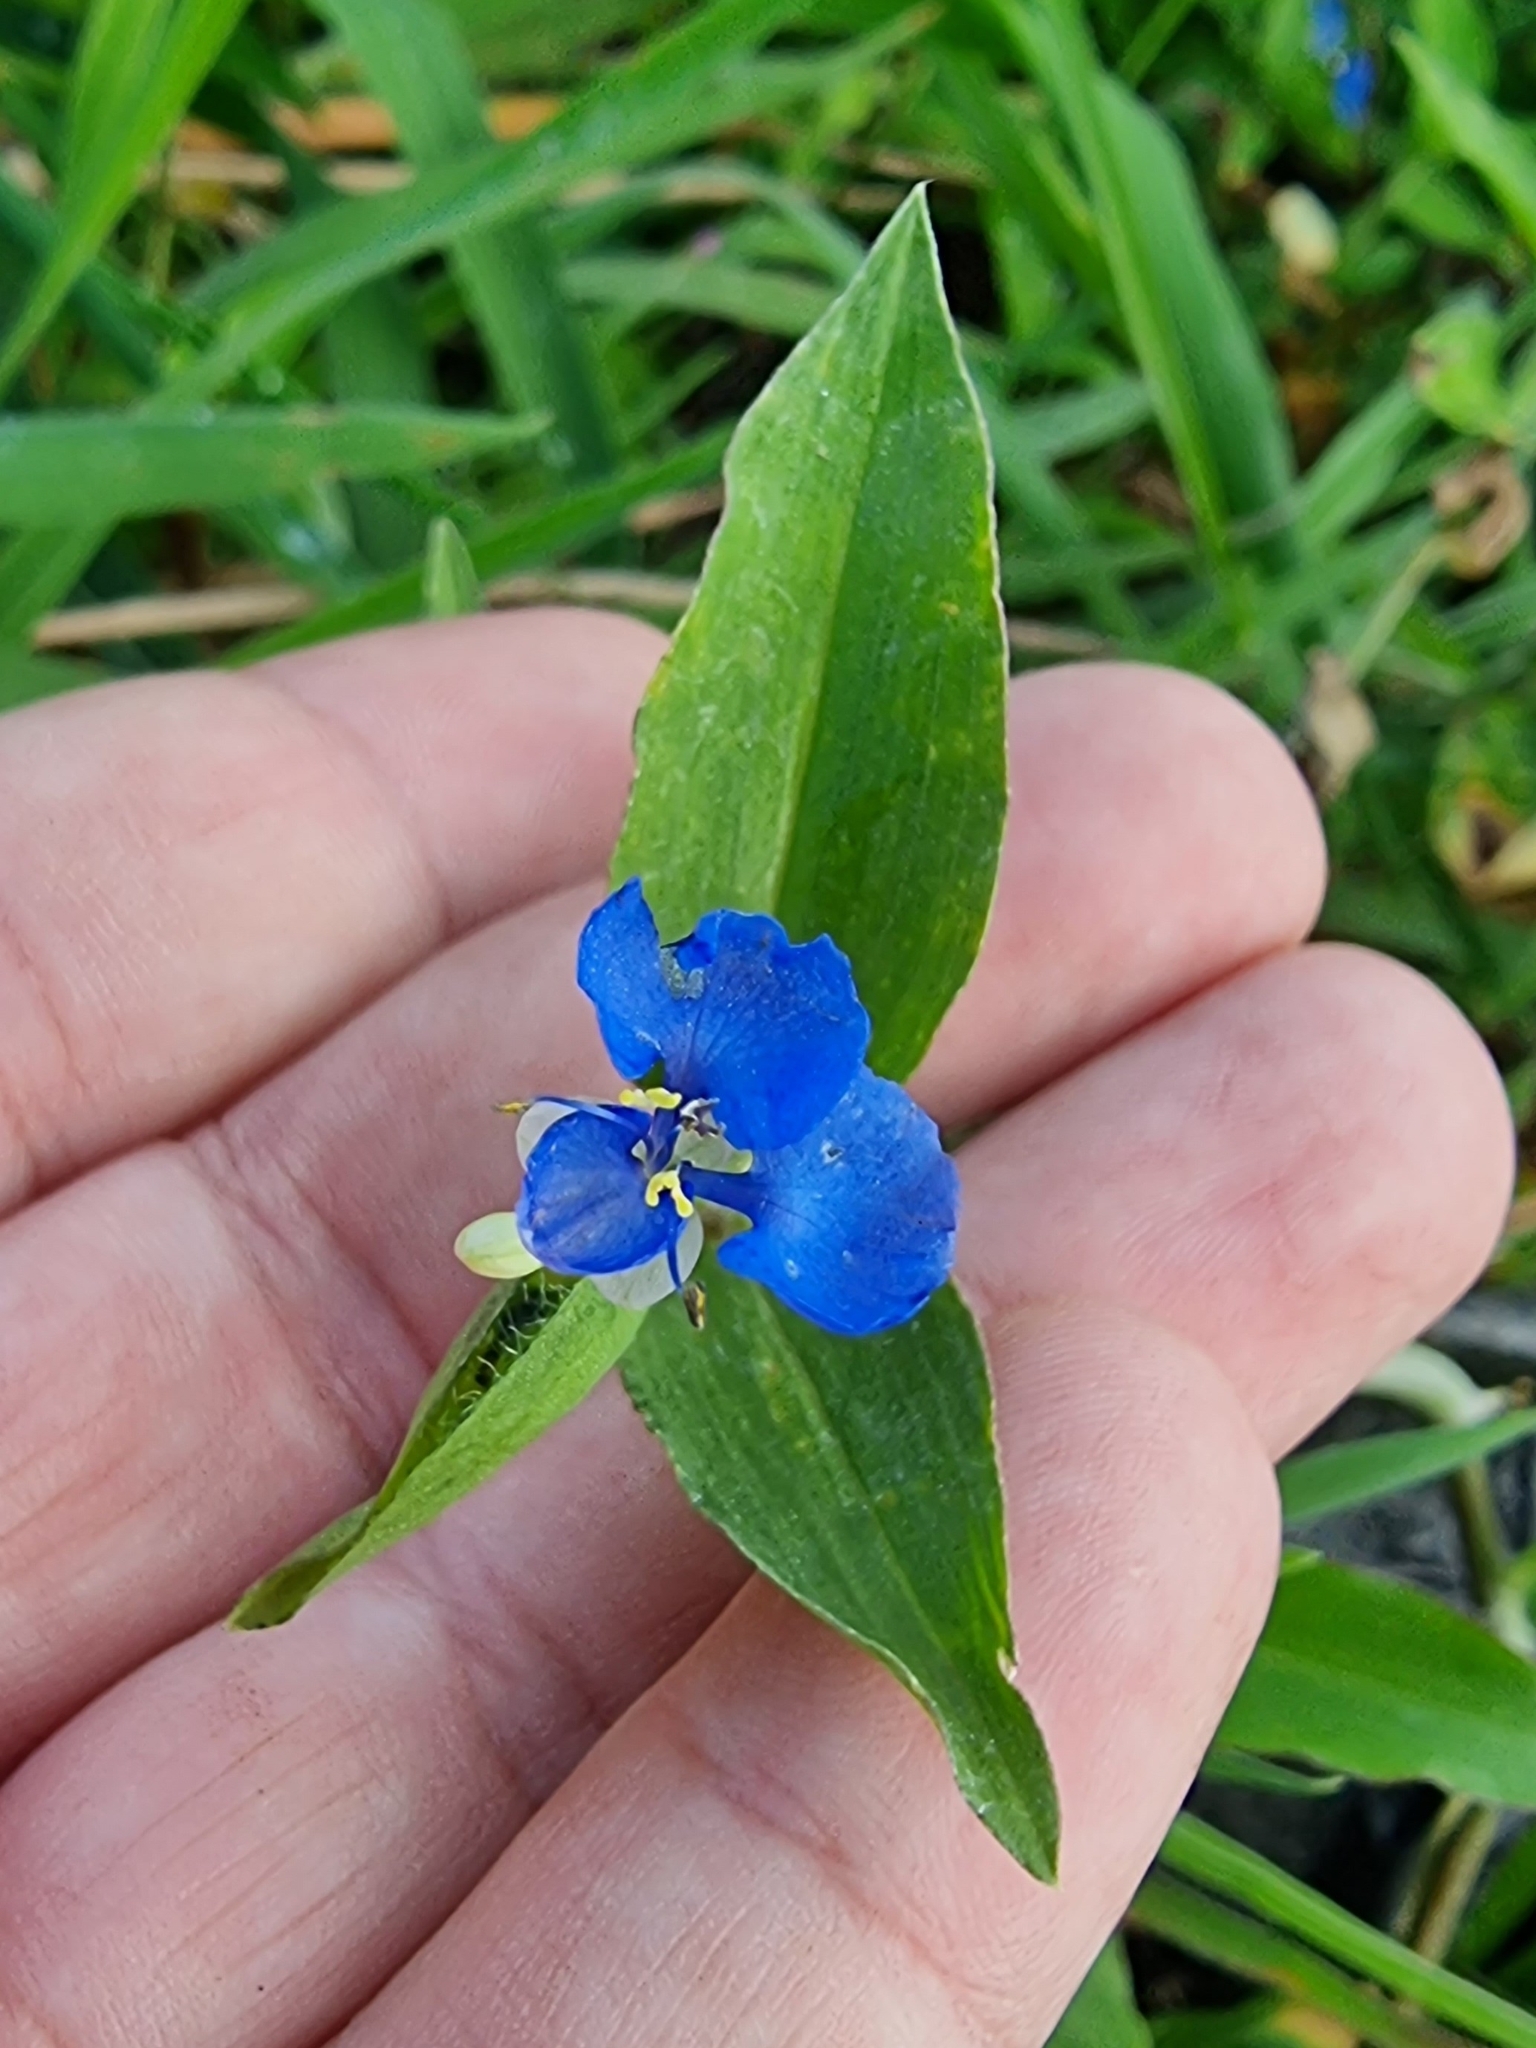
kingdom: Plantae
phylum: Tracheophyta
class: Liliopsida
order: Commelinales
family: Commelinaceae
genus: Commelina
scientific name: Commelina benghalensis
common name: Jio
